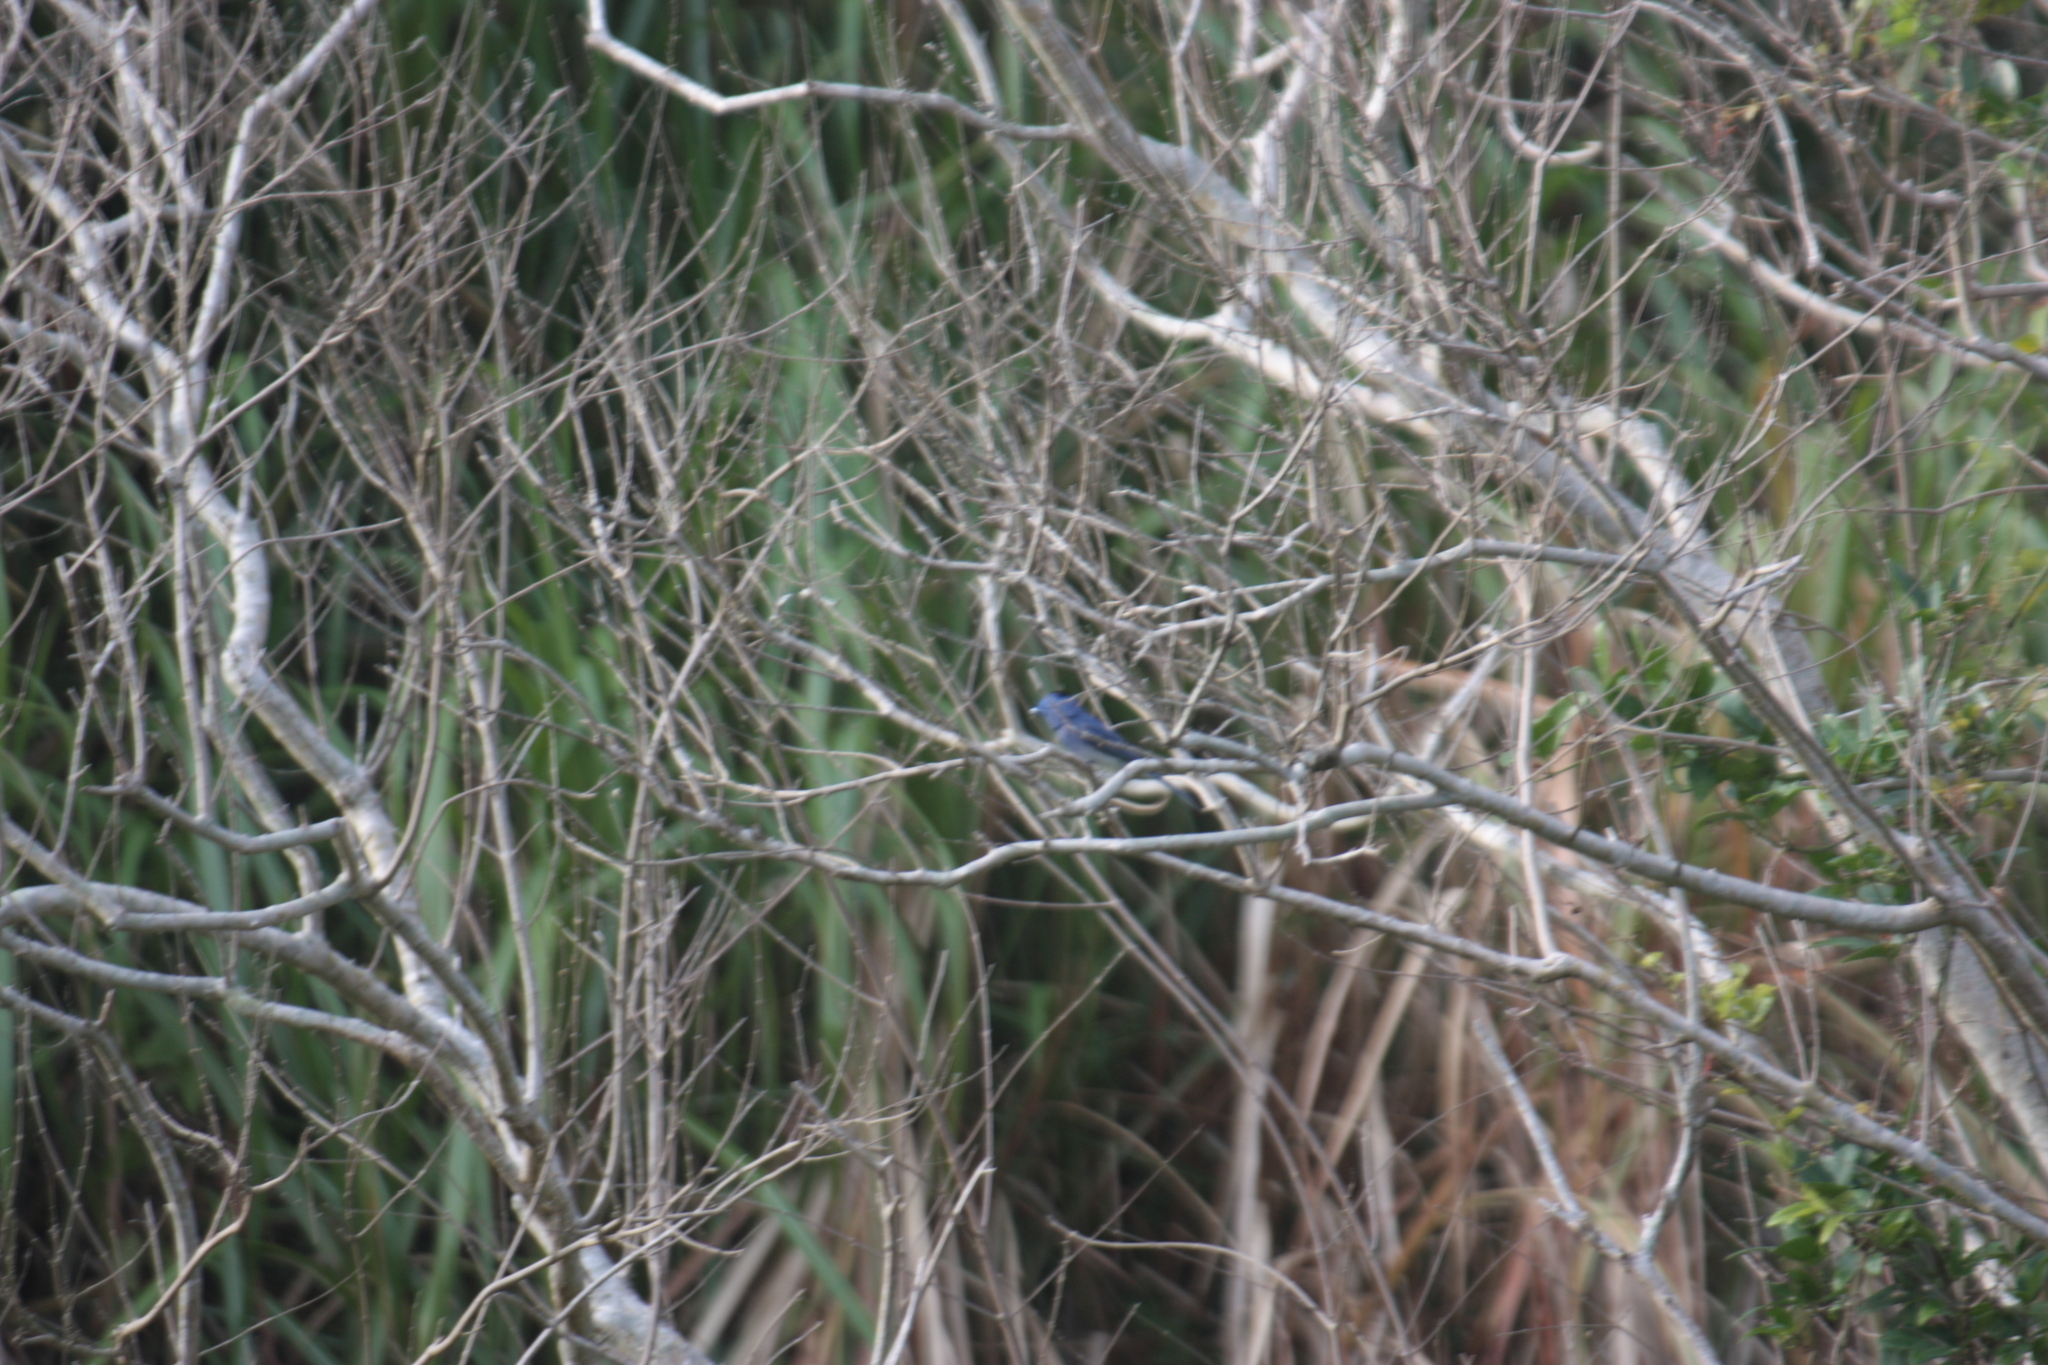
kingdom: Animalia
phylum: Chordata
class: Aves
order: Passeriformes
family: Monarchidae
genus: Hypothymis
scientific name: Hypothymis azurea
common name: Black-naped monarch
